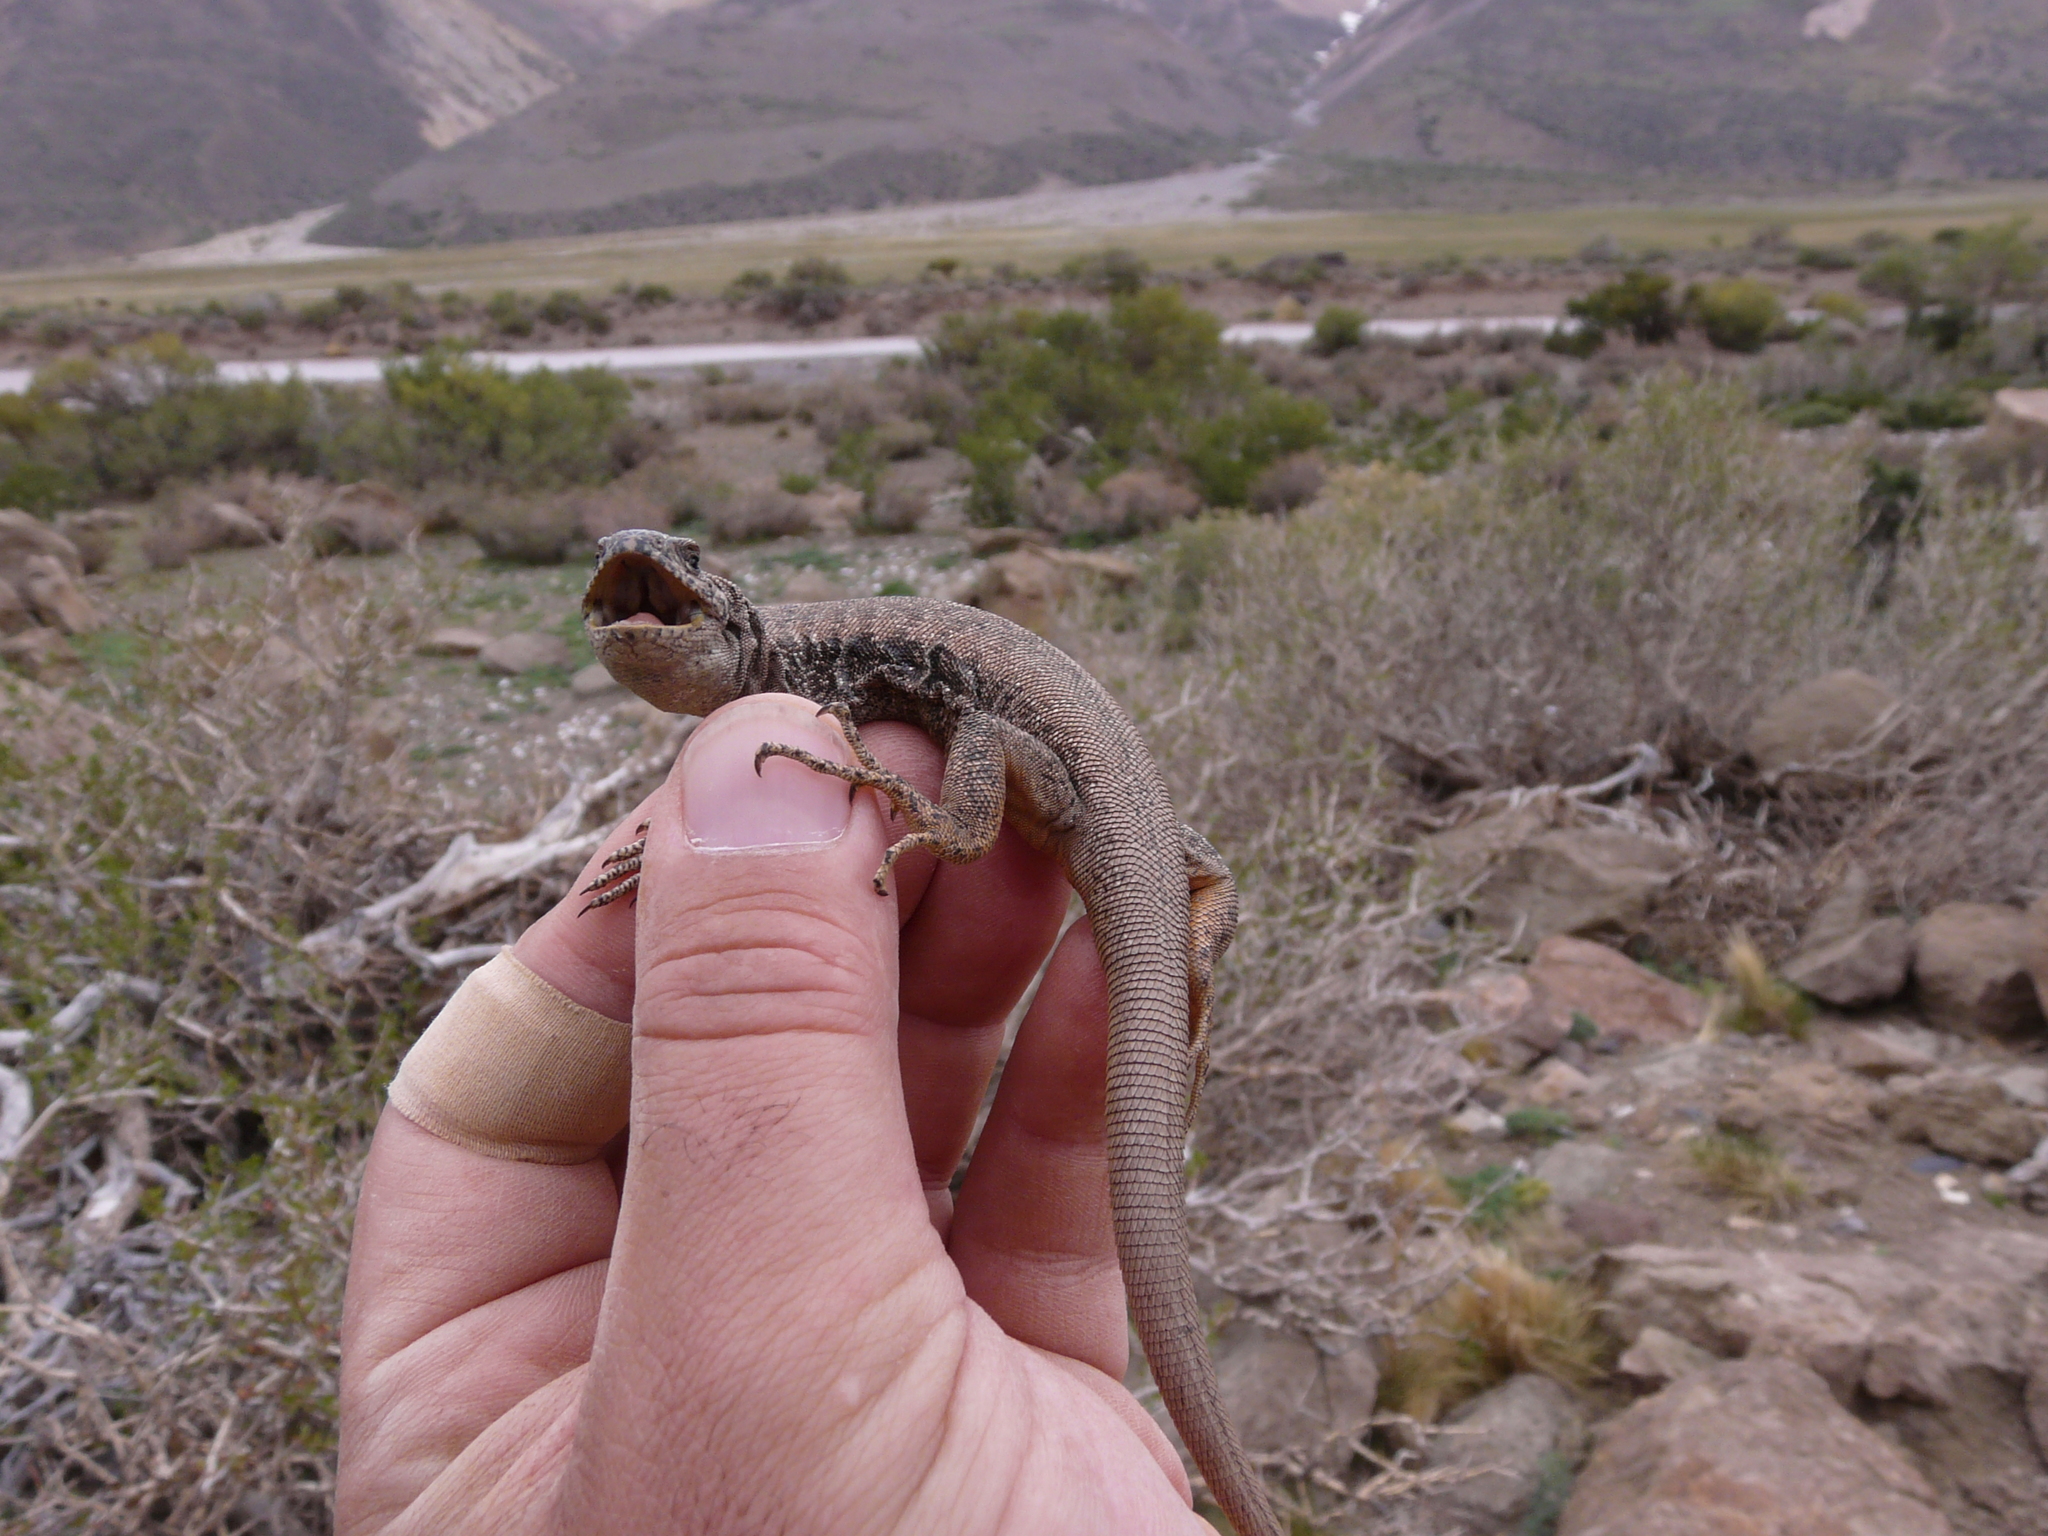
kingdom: Animalia
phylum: Chordata
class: Squamata
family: Liolaemidae
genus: Liolaemus
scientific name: Liolaemus buergeri
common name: Buerger's tree iguana
